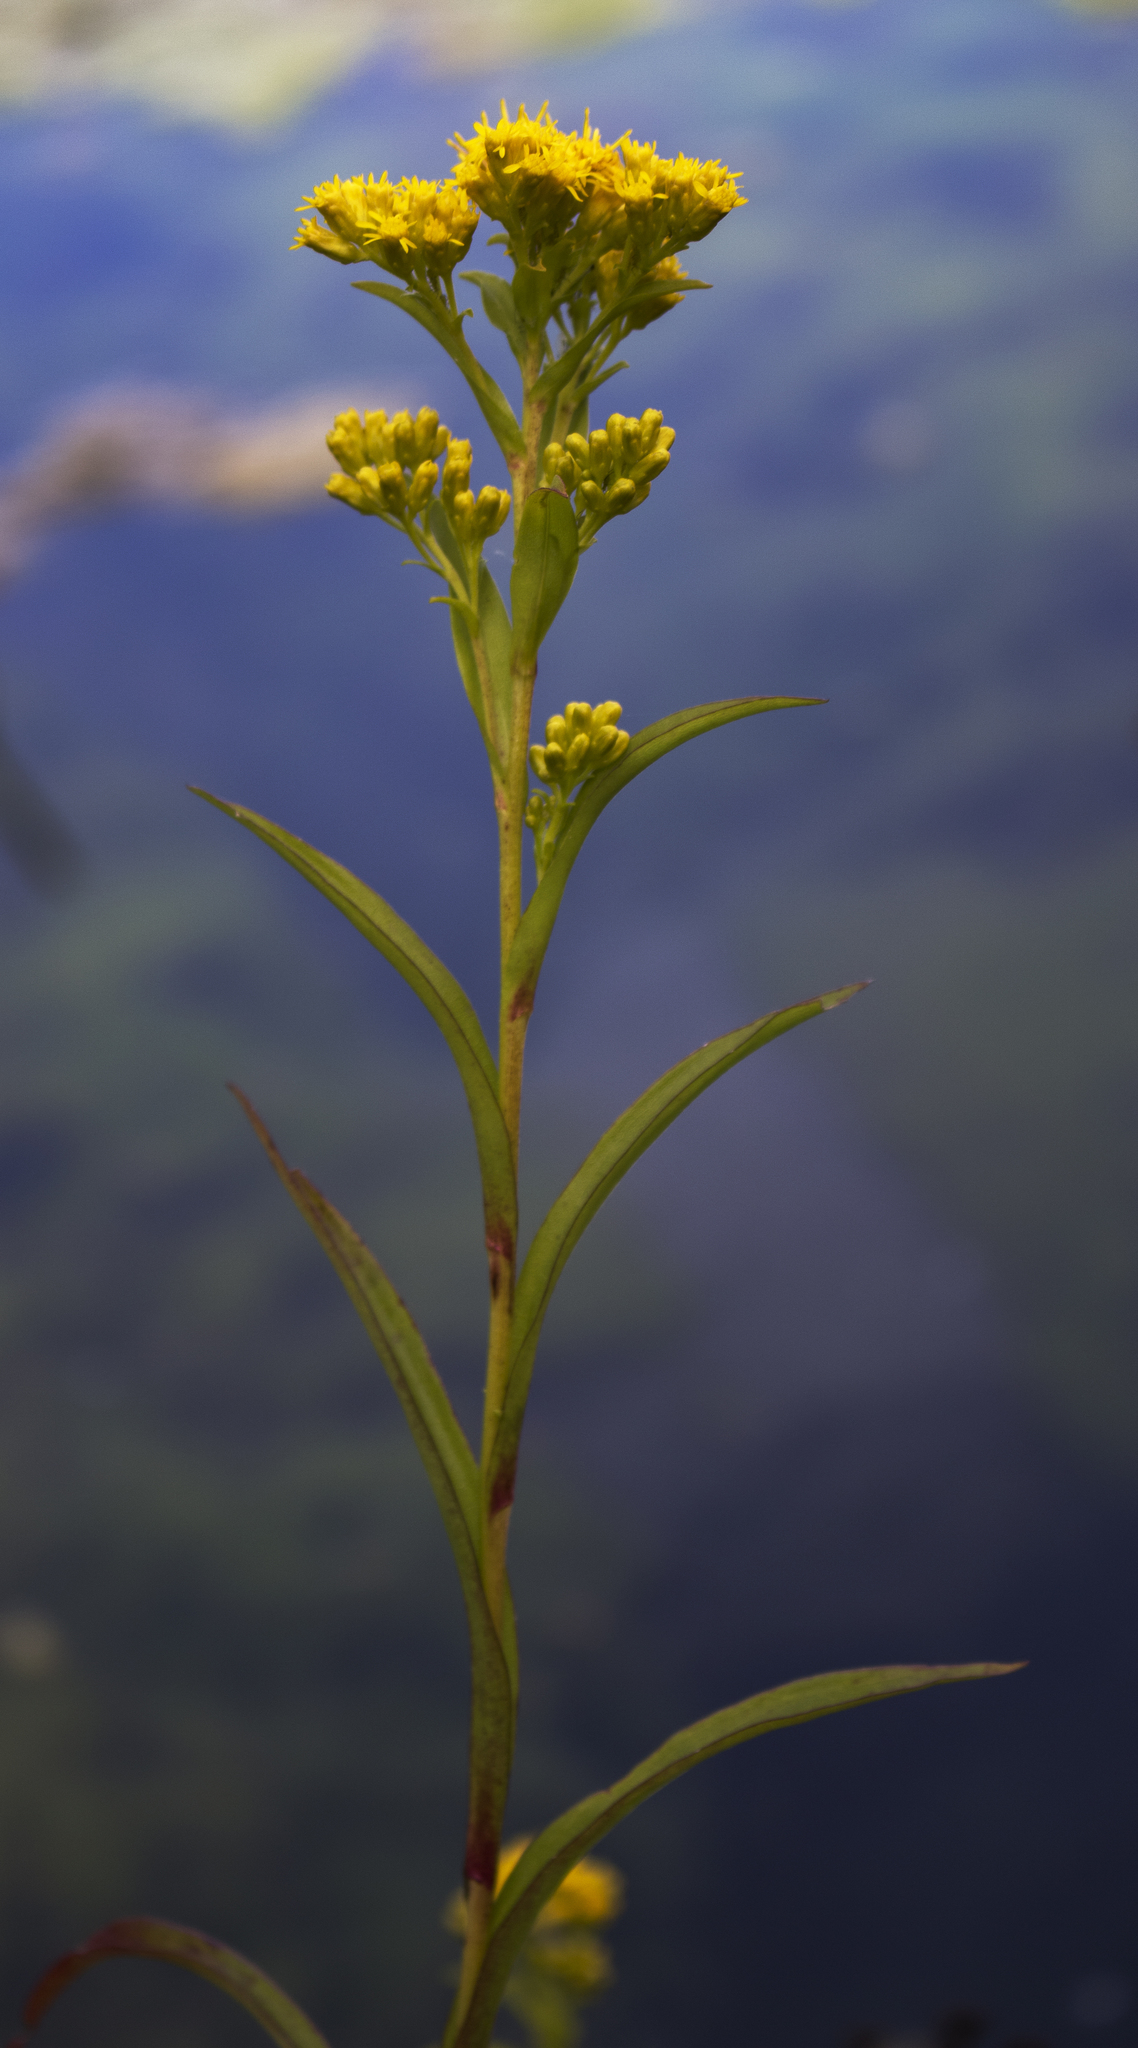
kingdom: Plantae
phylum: Tracheophyta
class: Magnoliopsida
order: Asterales
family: Asteraceae
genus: Solidago
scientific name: Solidago riddellii
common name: Riddell's goldenrod
